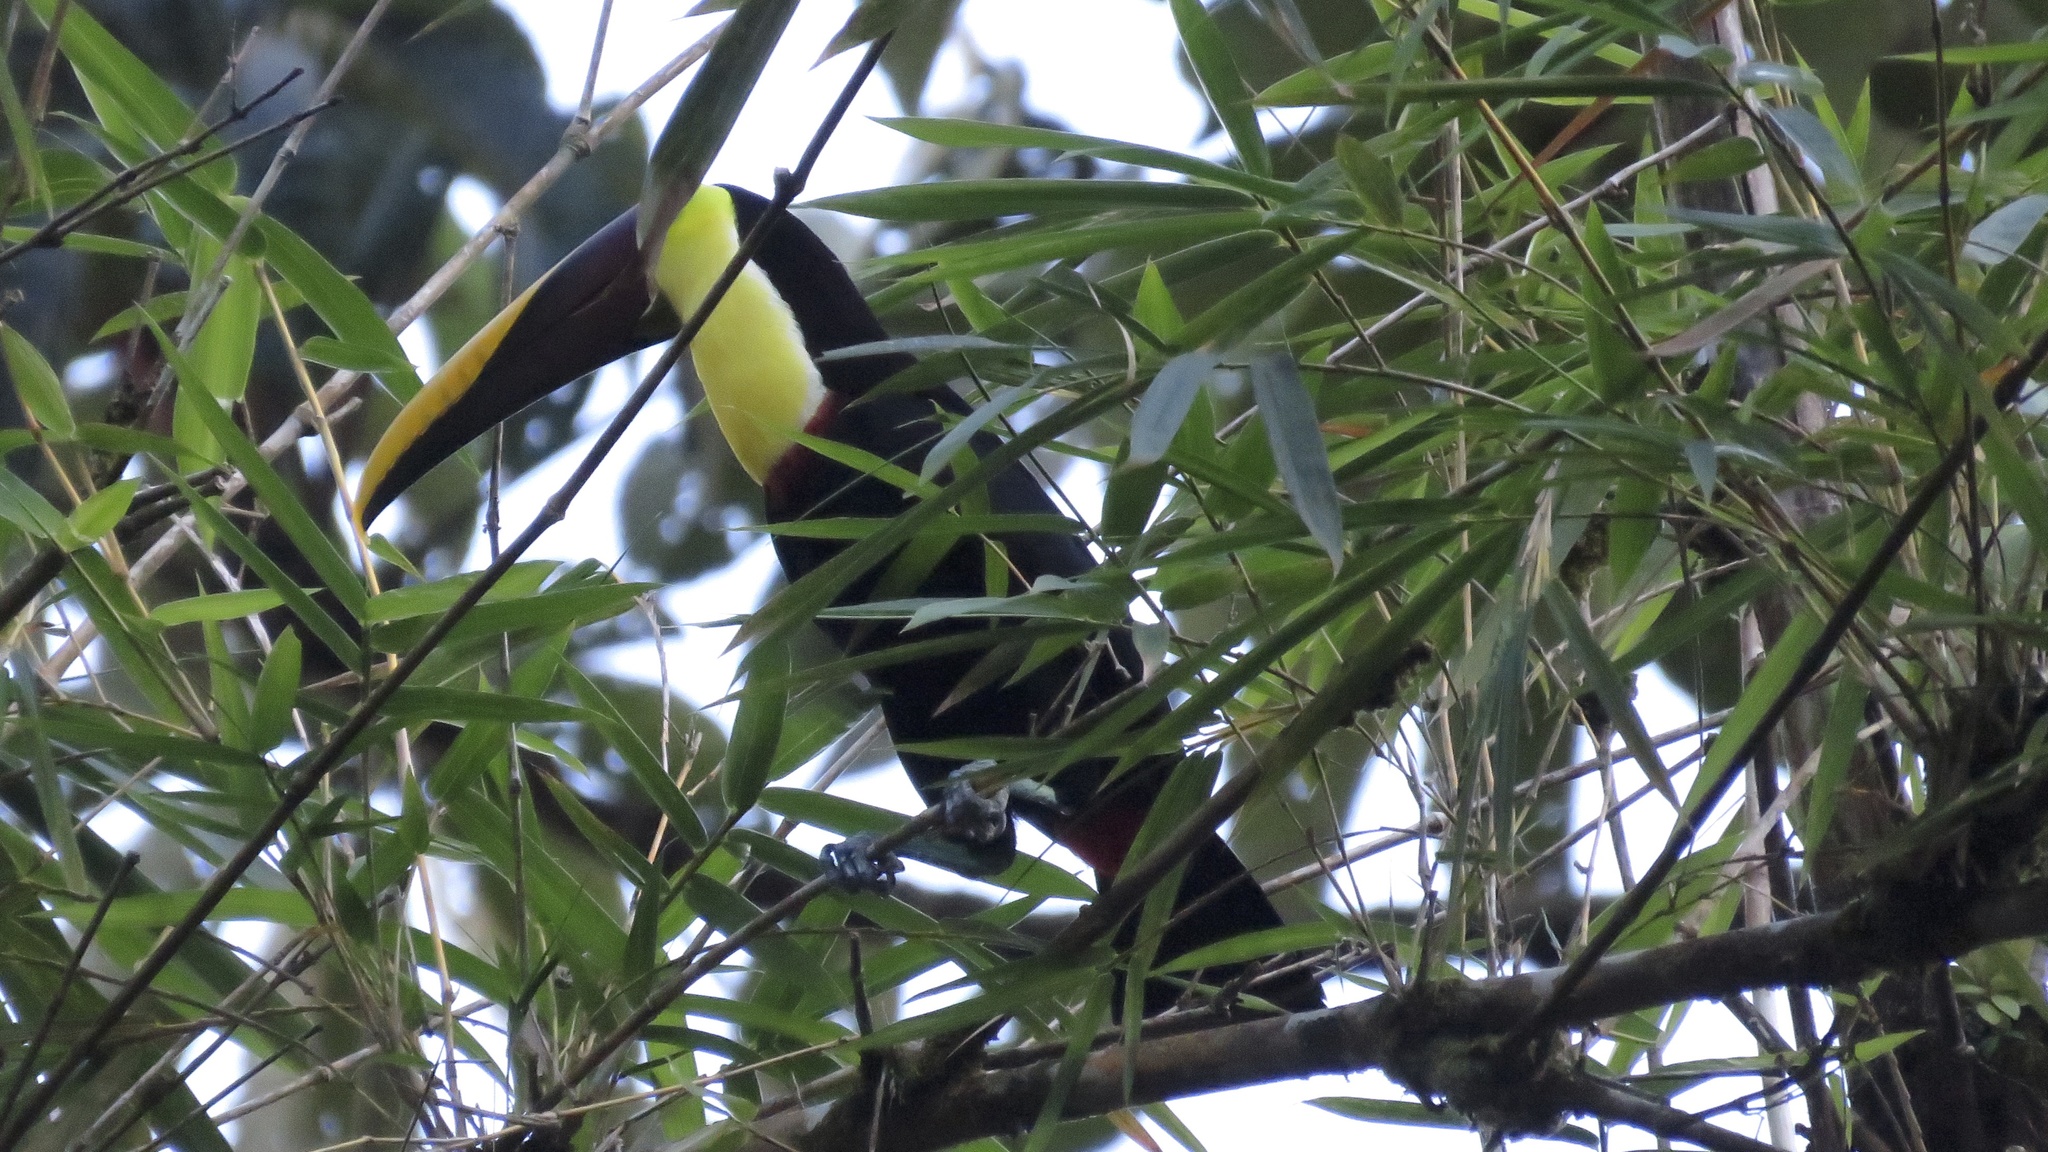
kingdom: Animalia
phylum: Chordata
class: Aves
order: Piciformes
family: Ramphastidae
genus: Ramphastos
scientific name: Ramphastos ambiguus
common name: Yellow-throated toucan
